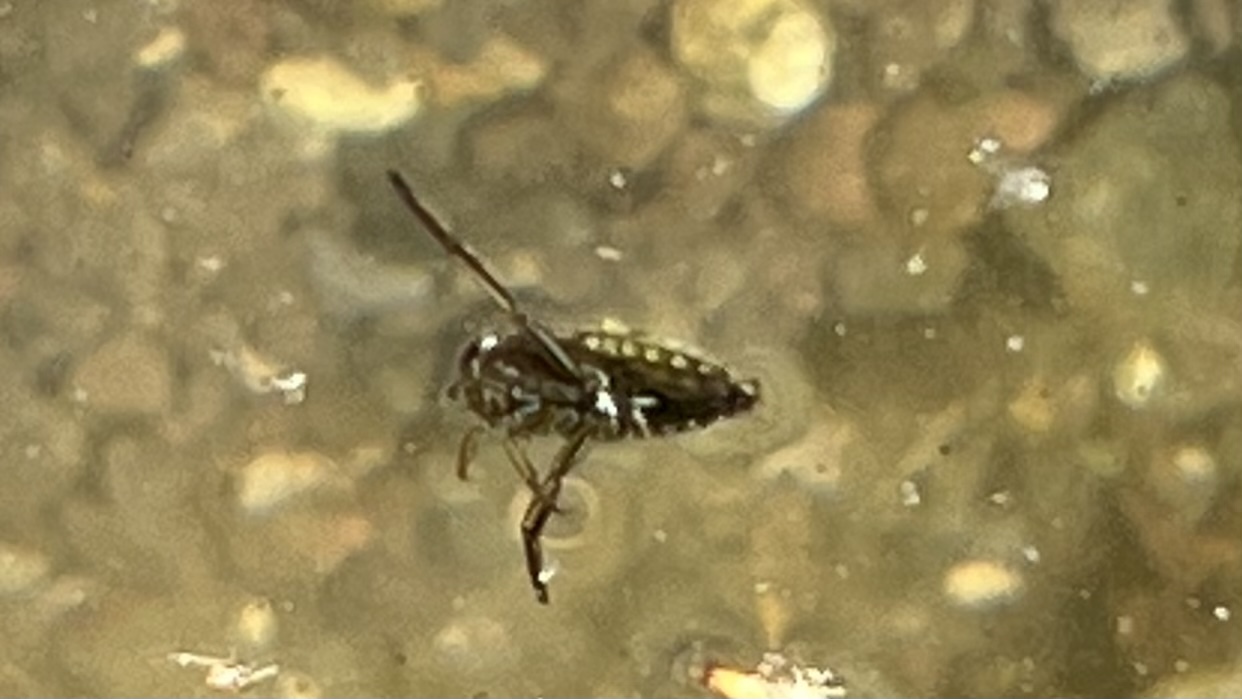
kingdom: Animalia
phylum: Arthropoda
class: Insecta
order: Hemiptera
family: Notonectidae
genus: Notonecta
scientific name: Notonecta
